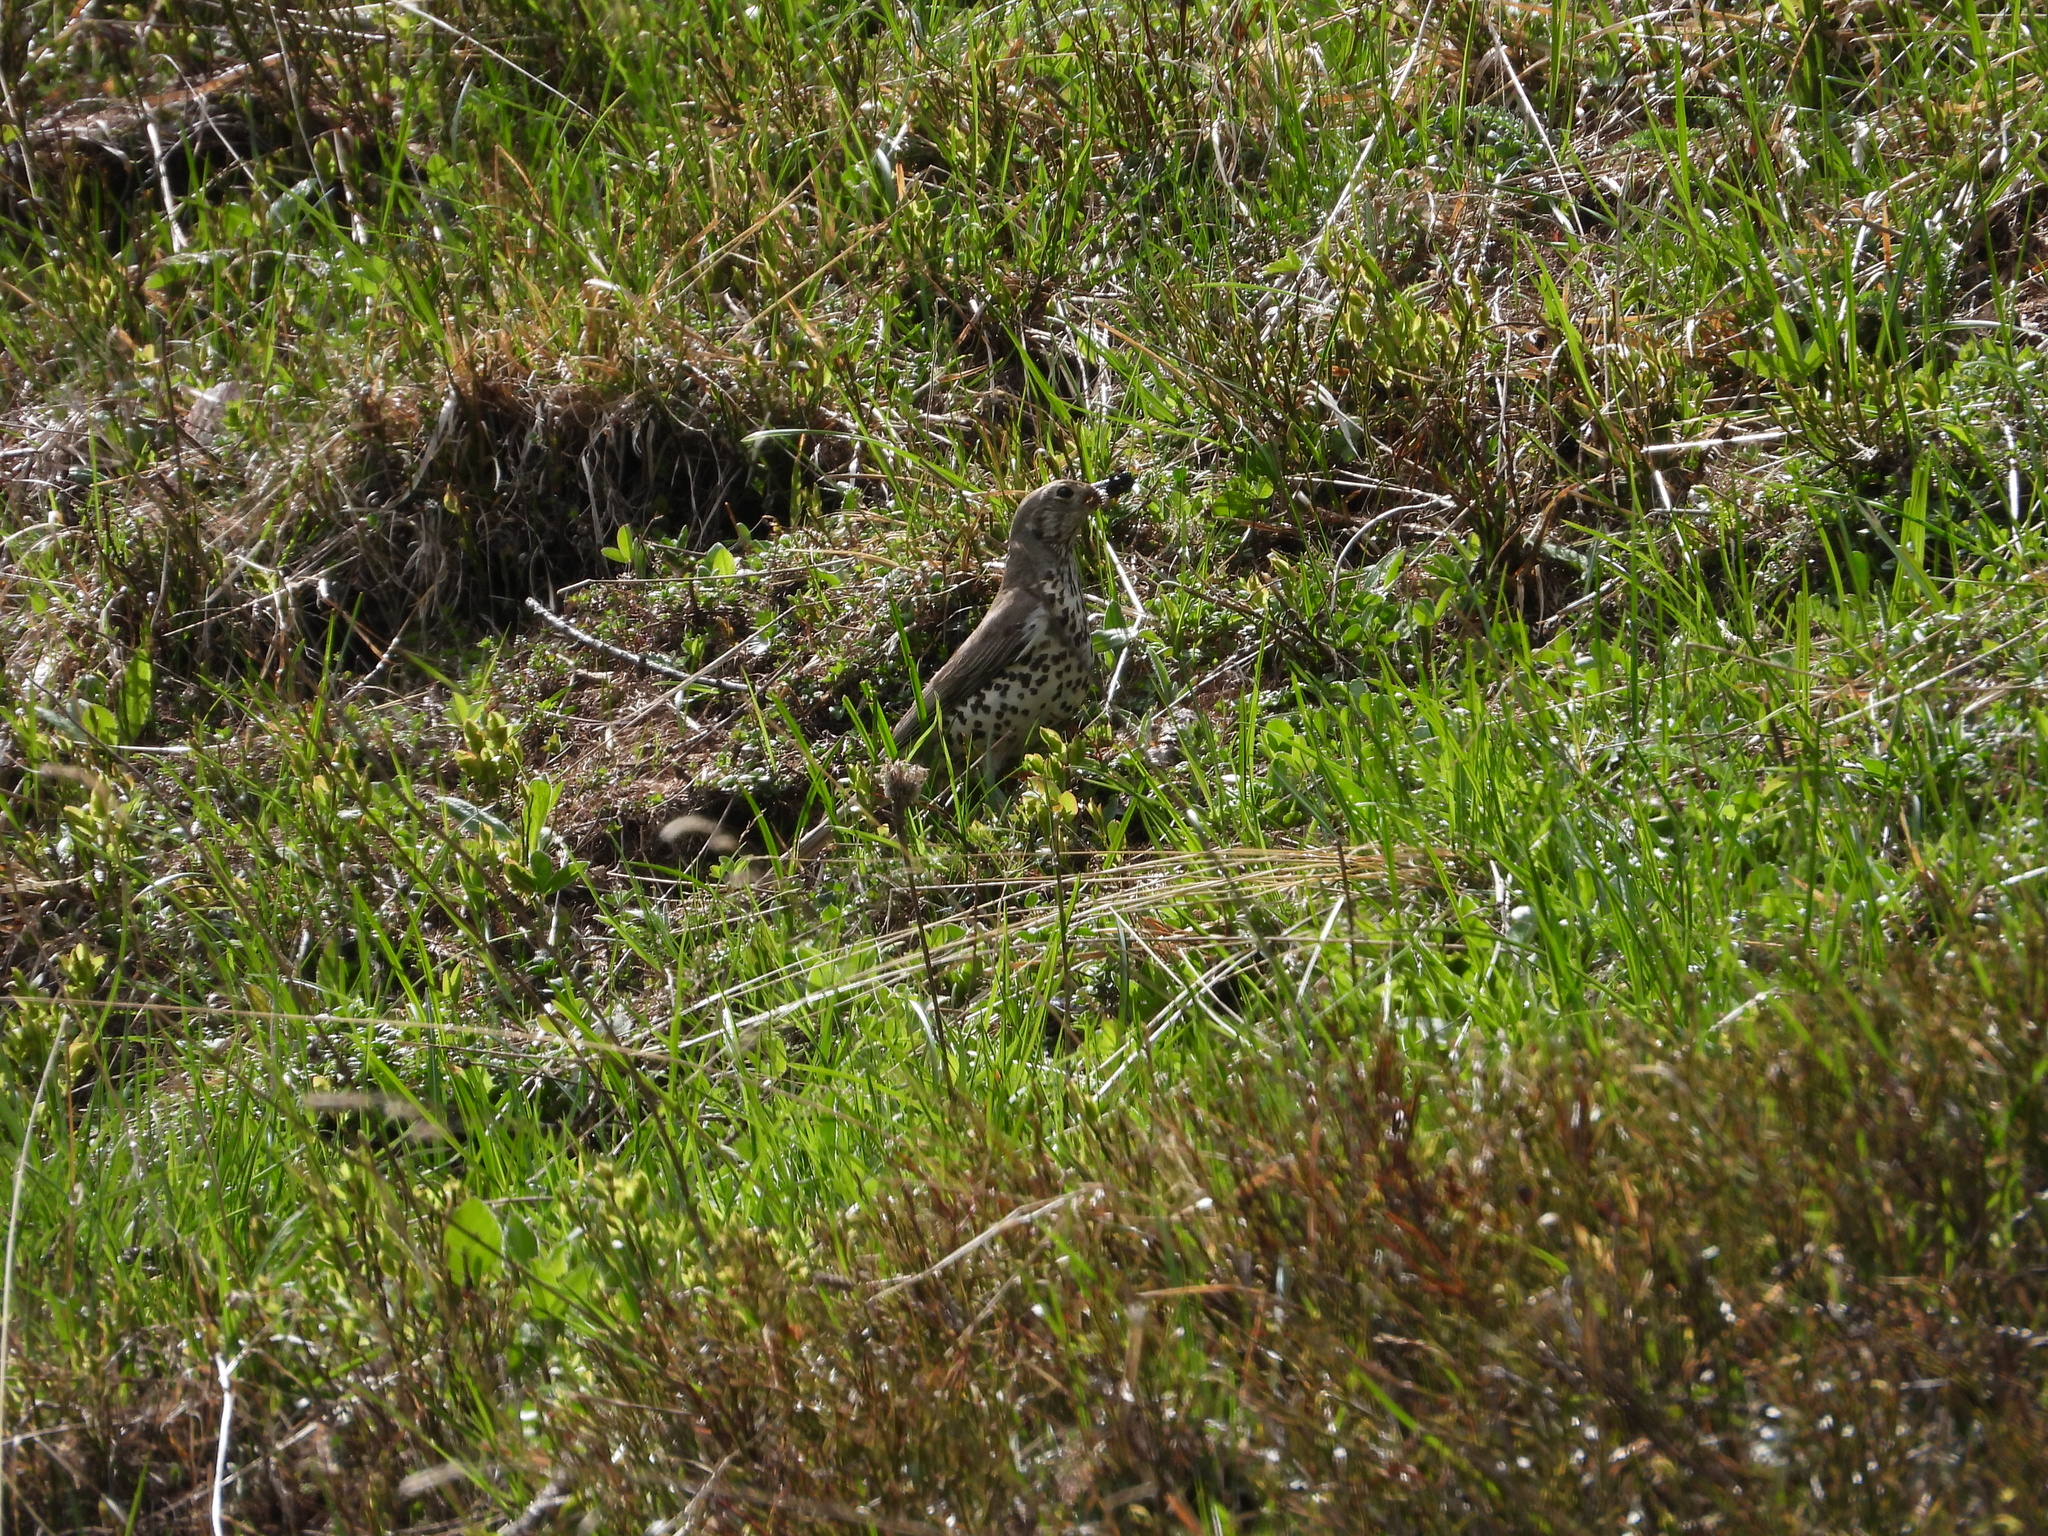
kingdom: Animalia
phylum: Chordata
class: Aves
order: Passeriformes
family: Turdidae
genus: Turdus
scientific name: Turdus viscivorus
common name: Mistle thrush
